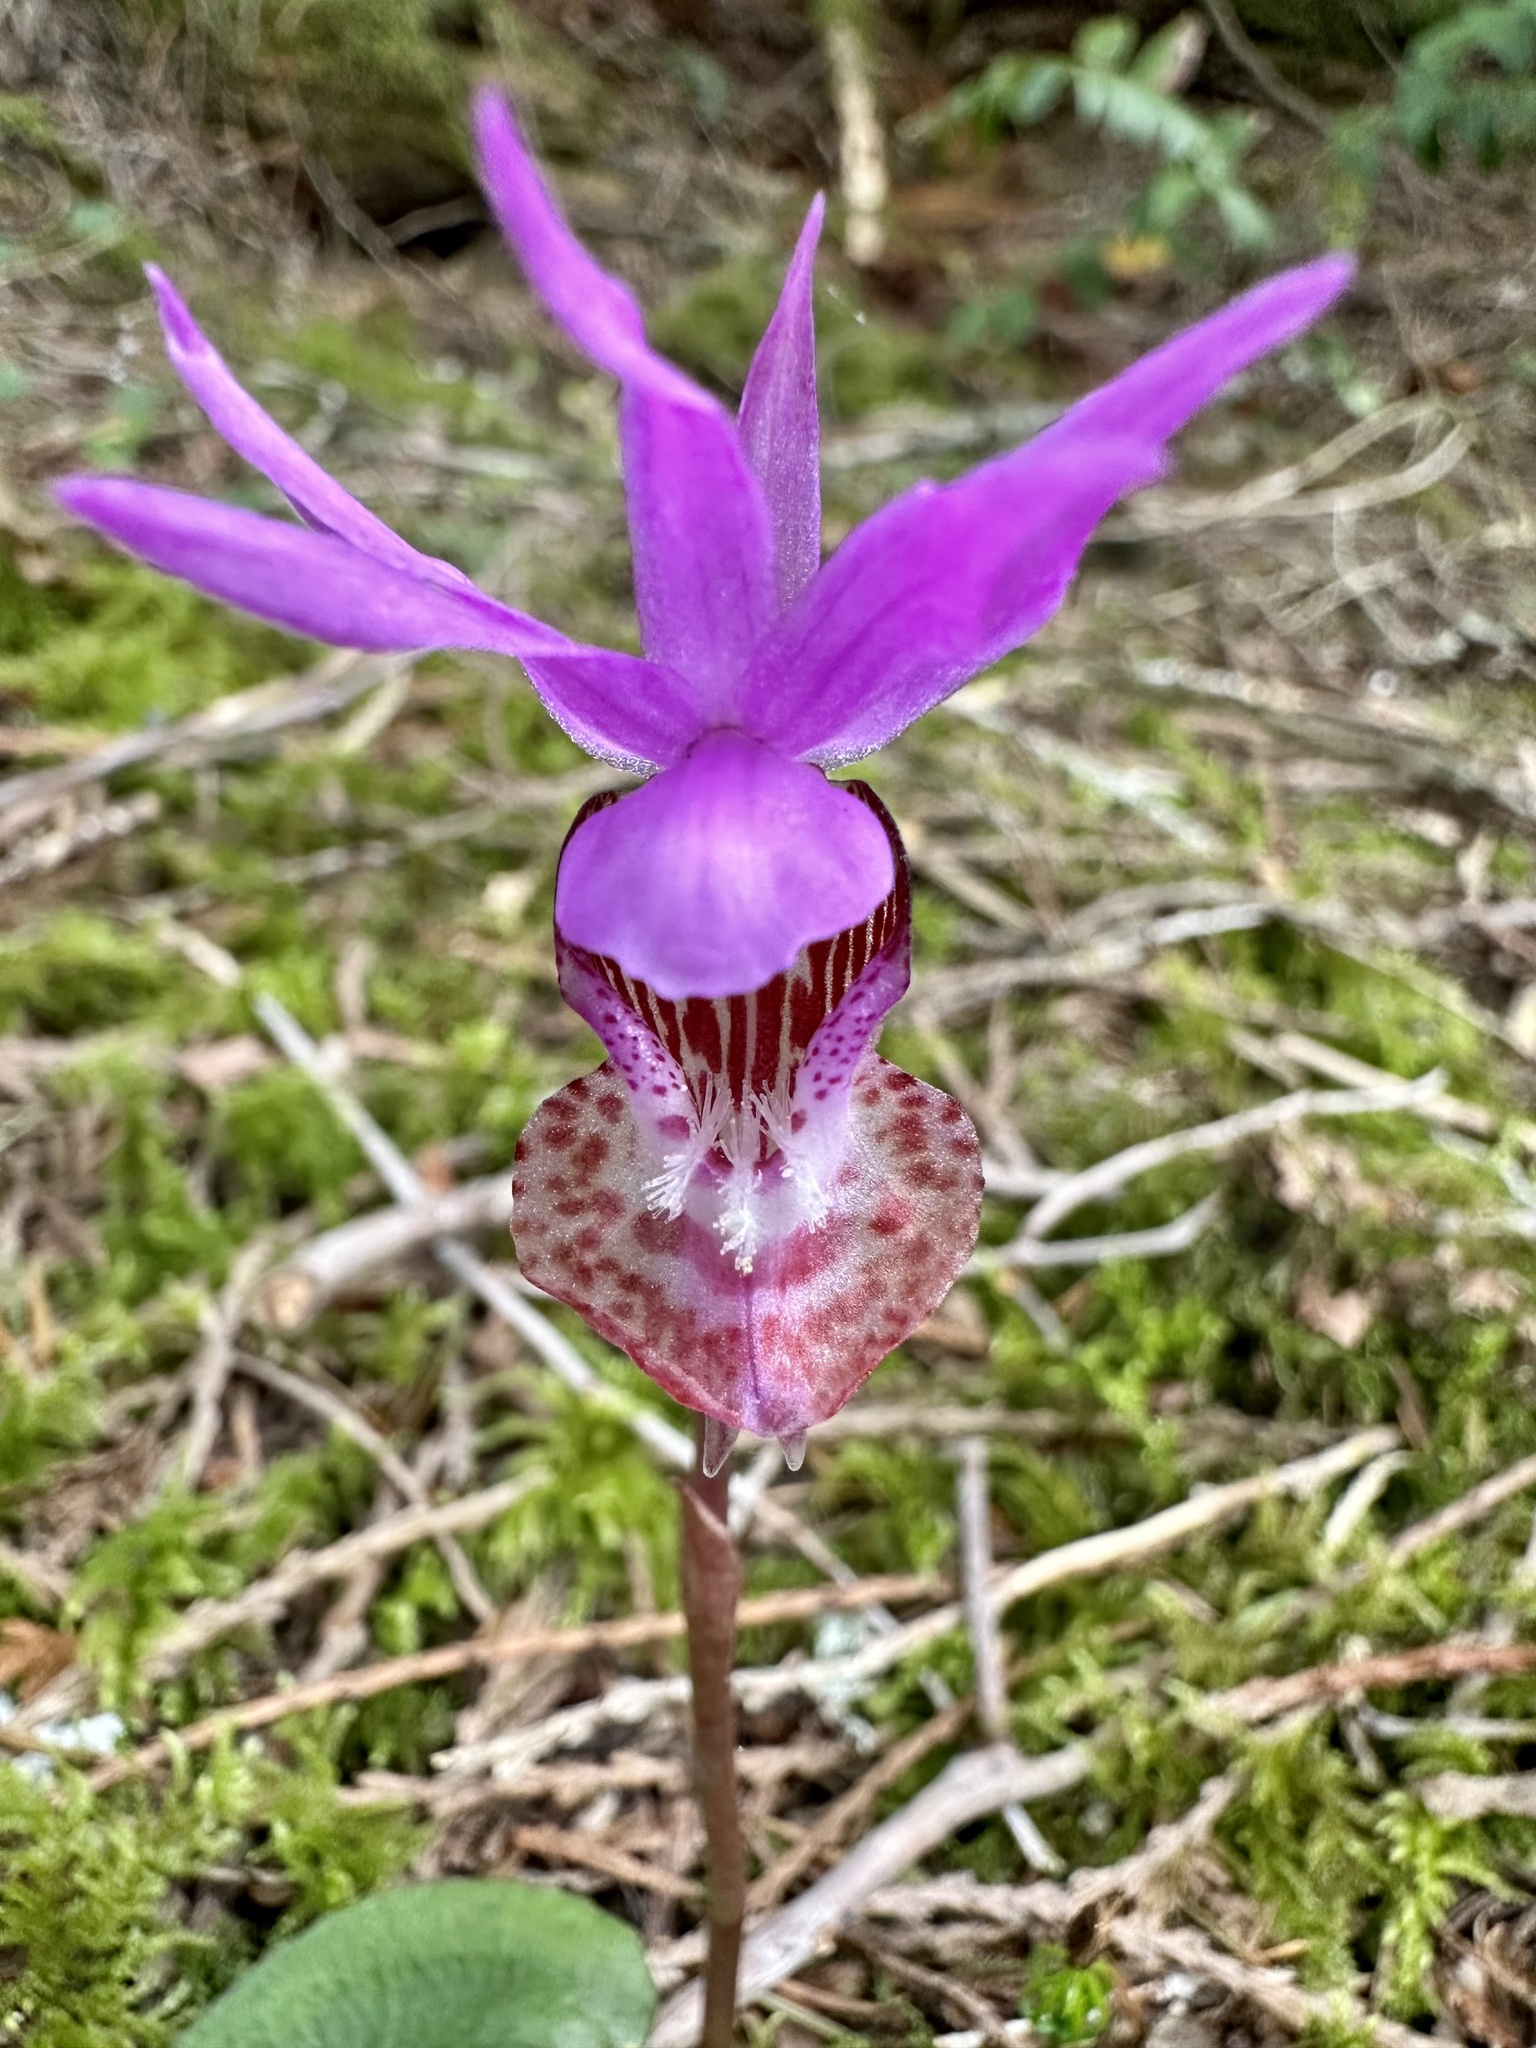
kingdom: Plantae
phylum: Tracheophyta
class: Liliopsida
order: Asparagales
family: Orchidaceae
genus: Calypso
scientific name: Calypso bulbosa
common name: Calypso
